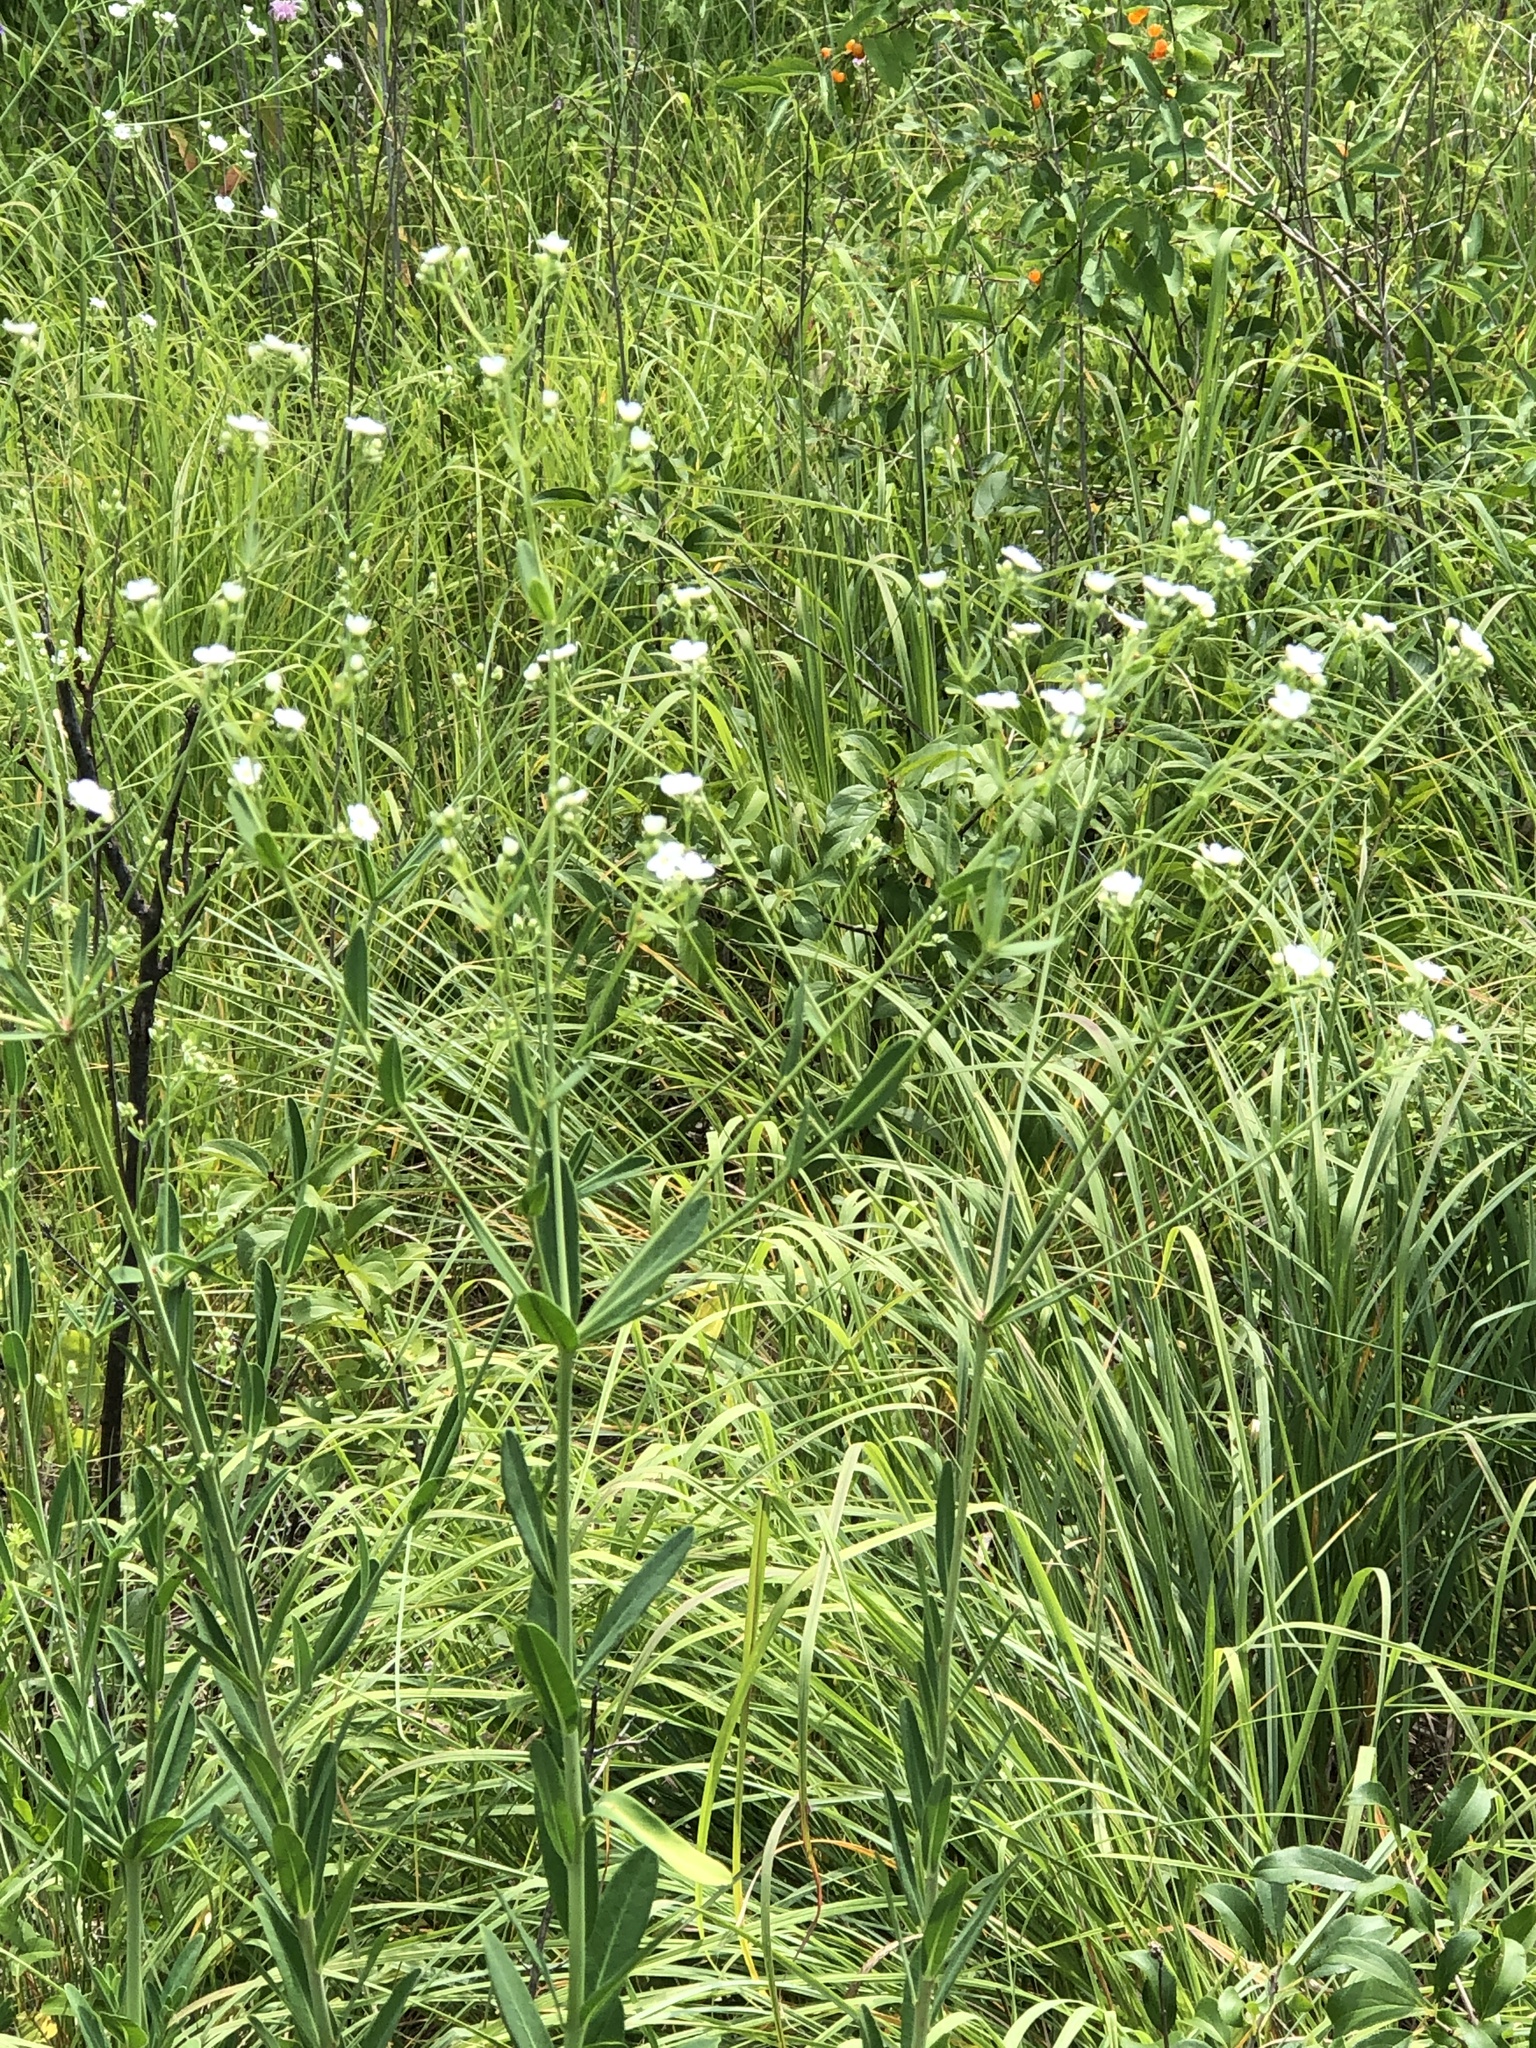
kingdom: Plantae
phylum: Tracheophyta
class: Magnoliopsida
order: Malpighiales
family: Euphorbiaceae
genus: Euphorbia
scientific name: Euphorbia corollata
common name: Flowering spurge
